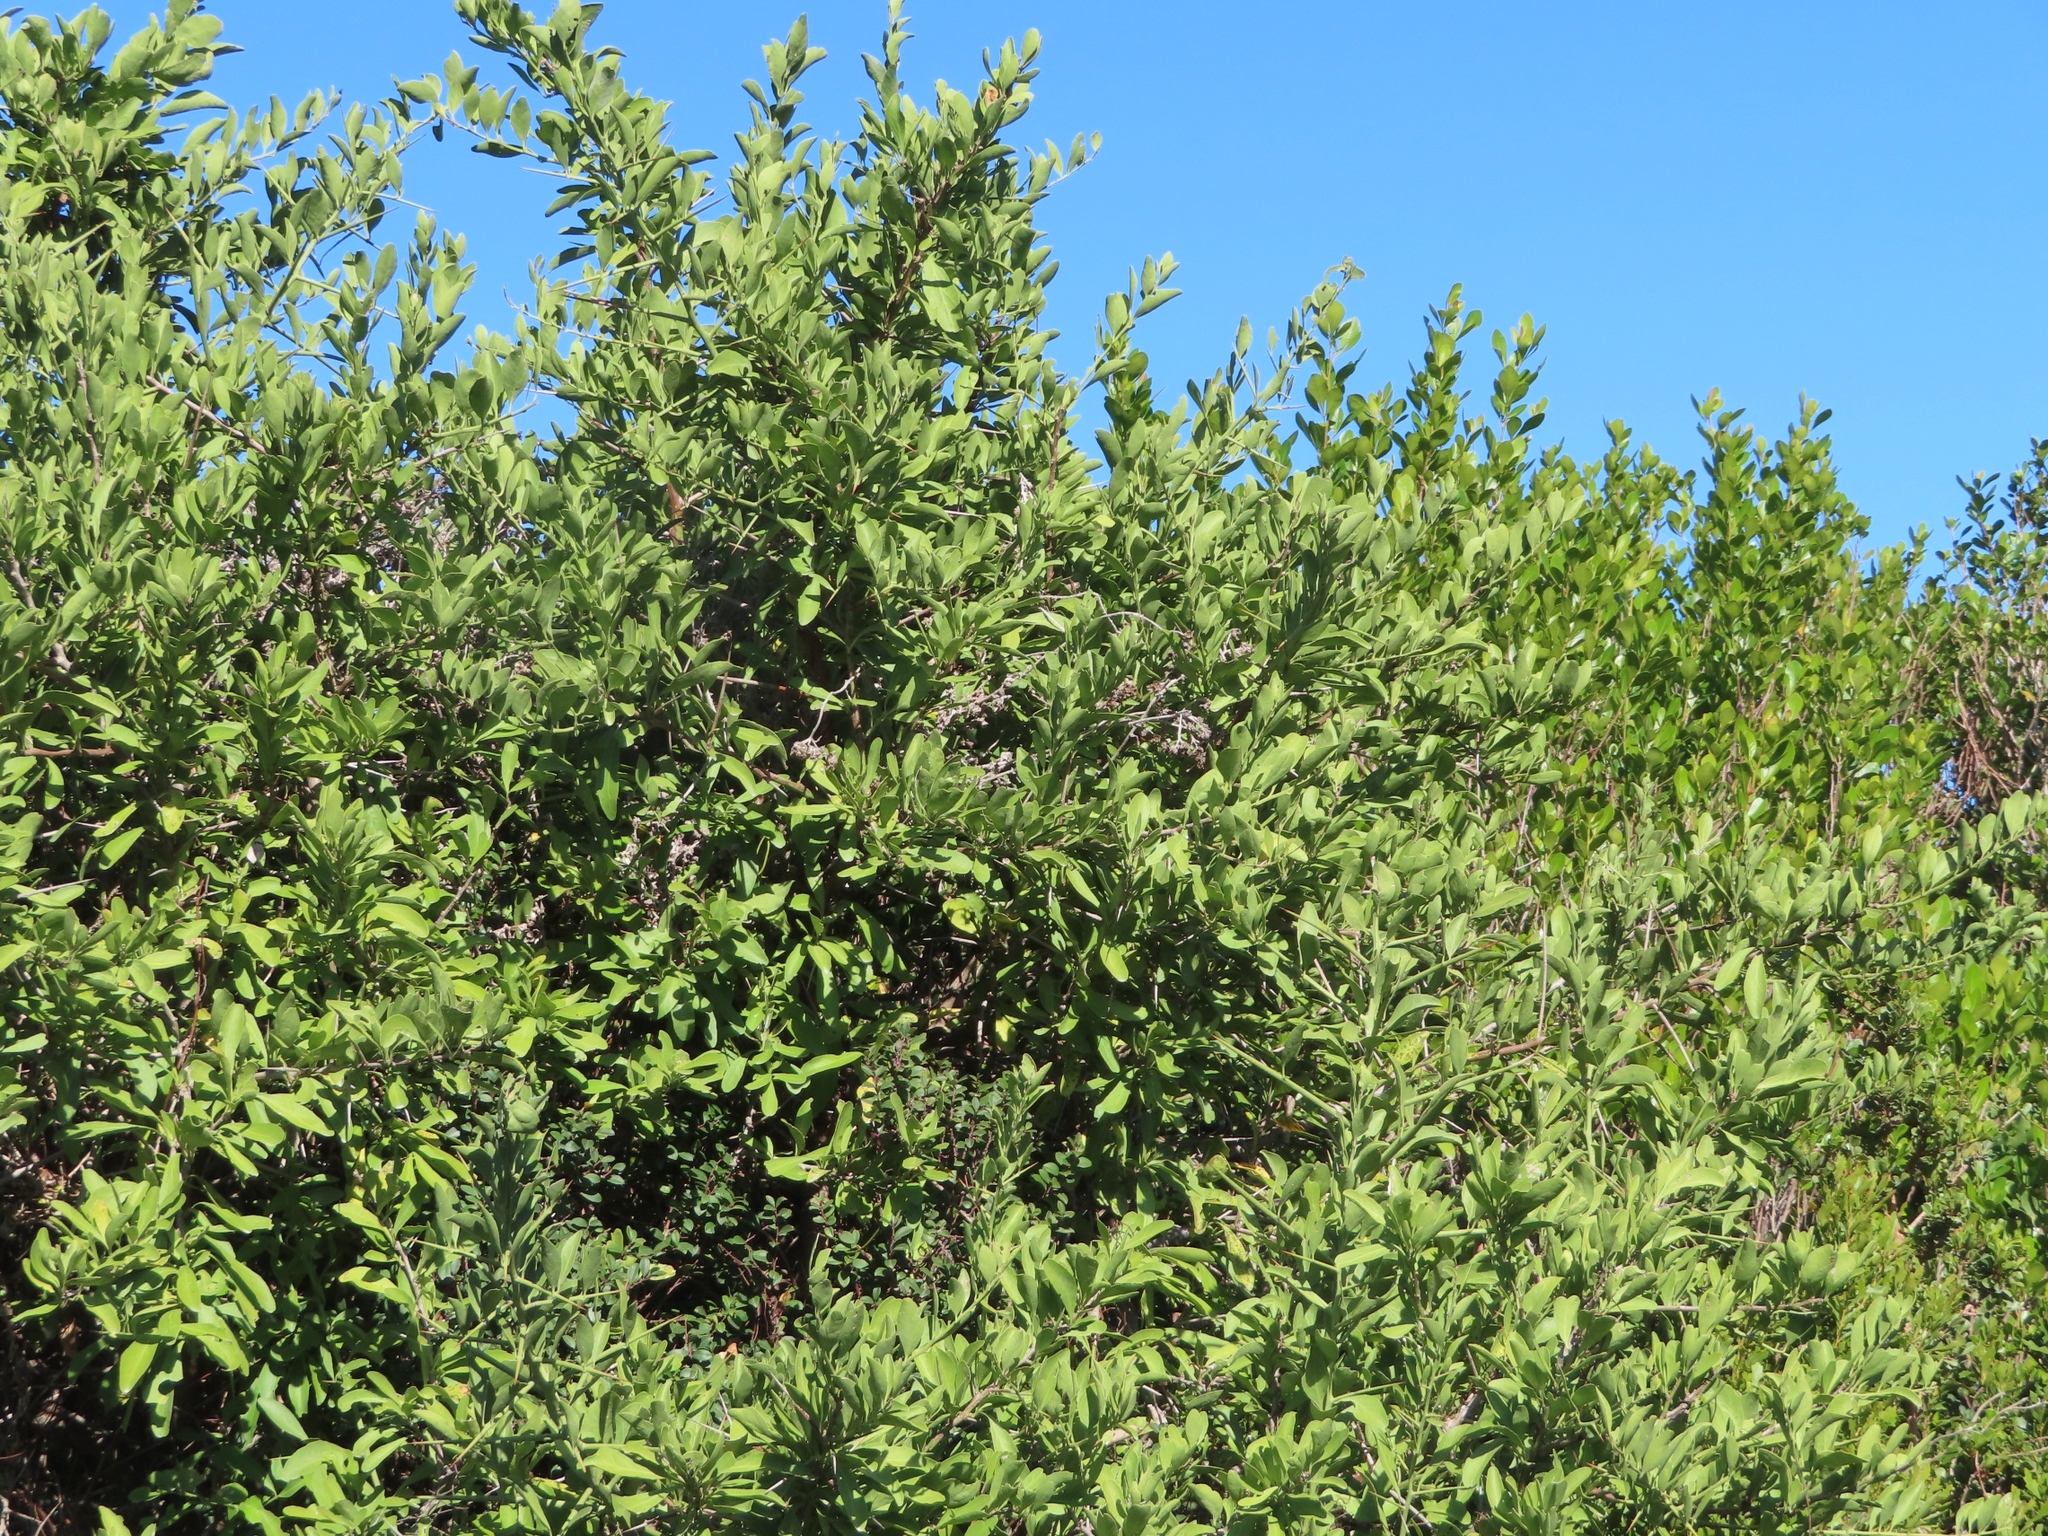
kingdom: Plantae
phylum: Tracheophyta
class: Magnoliopsida
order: Celastrales
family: Celastraceae
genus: Gymnosporia
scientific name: Gymnosporia buxifolia
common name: Common spike-thorn
